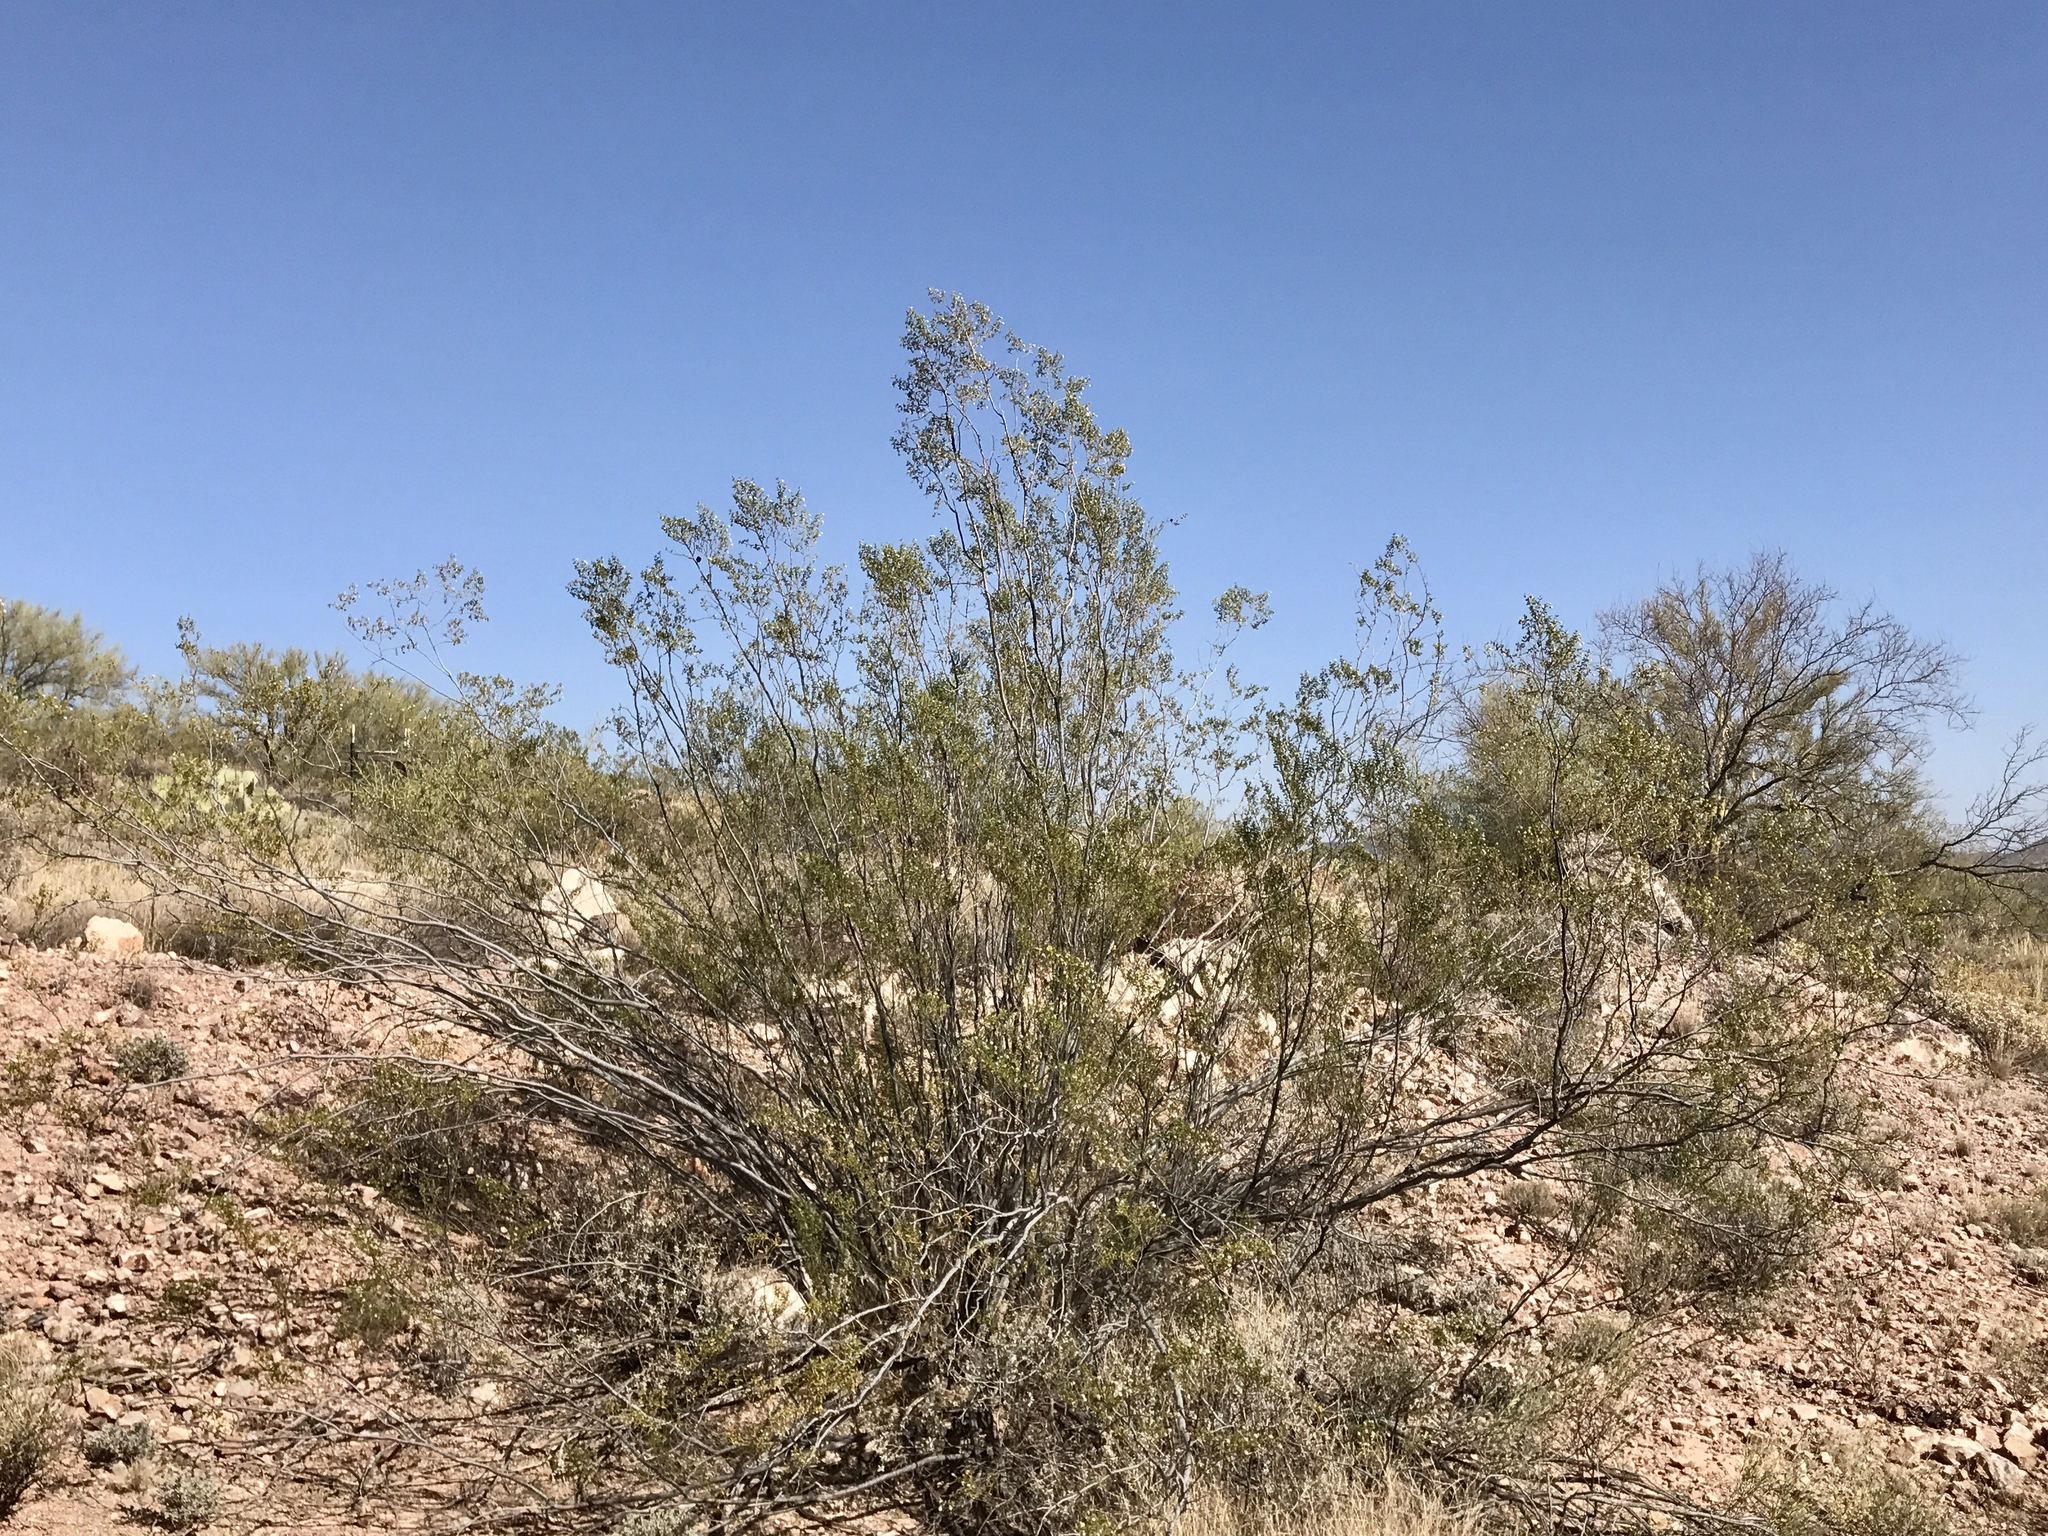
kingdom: Plantae
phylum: Tracheophyta
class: Magnoliopsida
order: Zygophyllales
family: Zygophyllaceae
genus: Larrea
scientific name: Larrea tridentata
